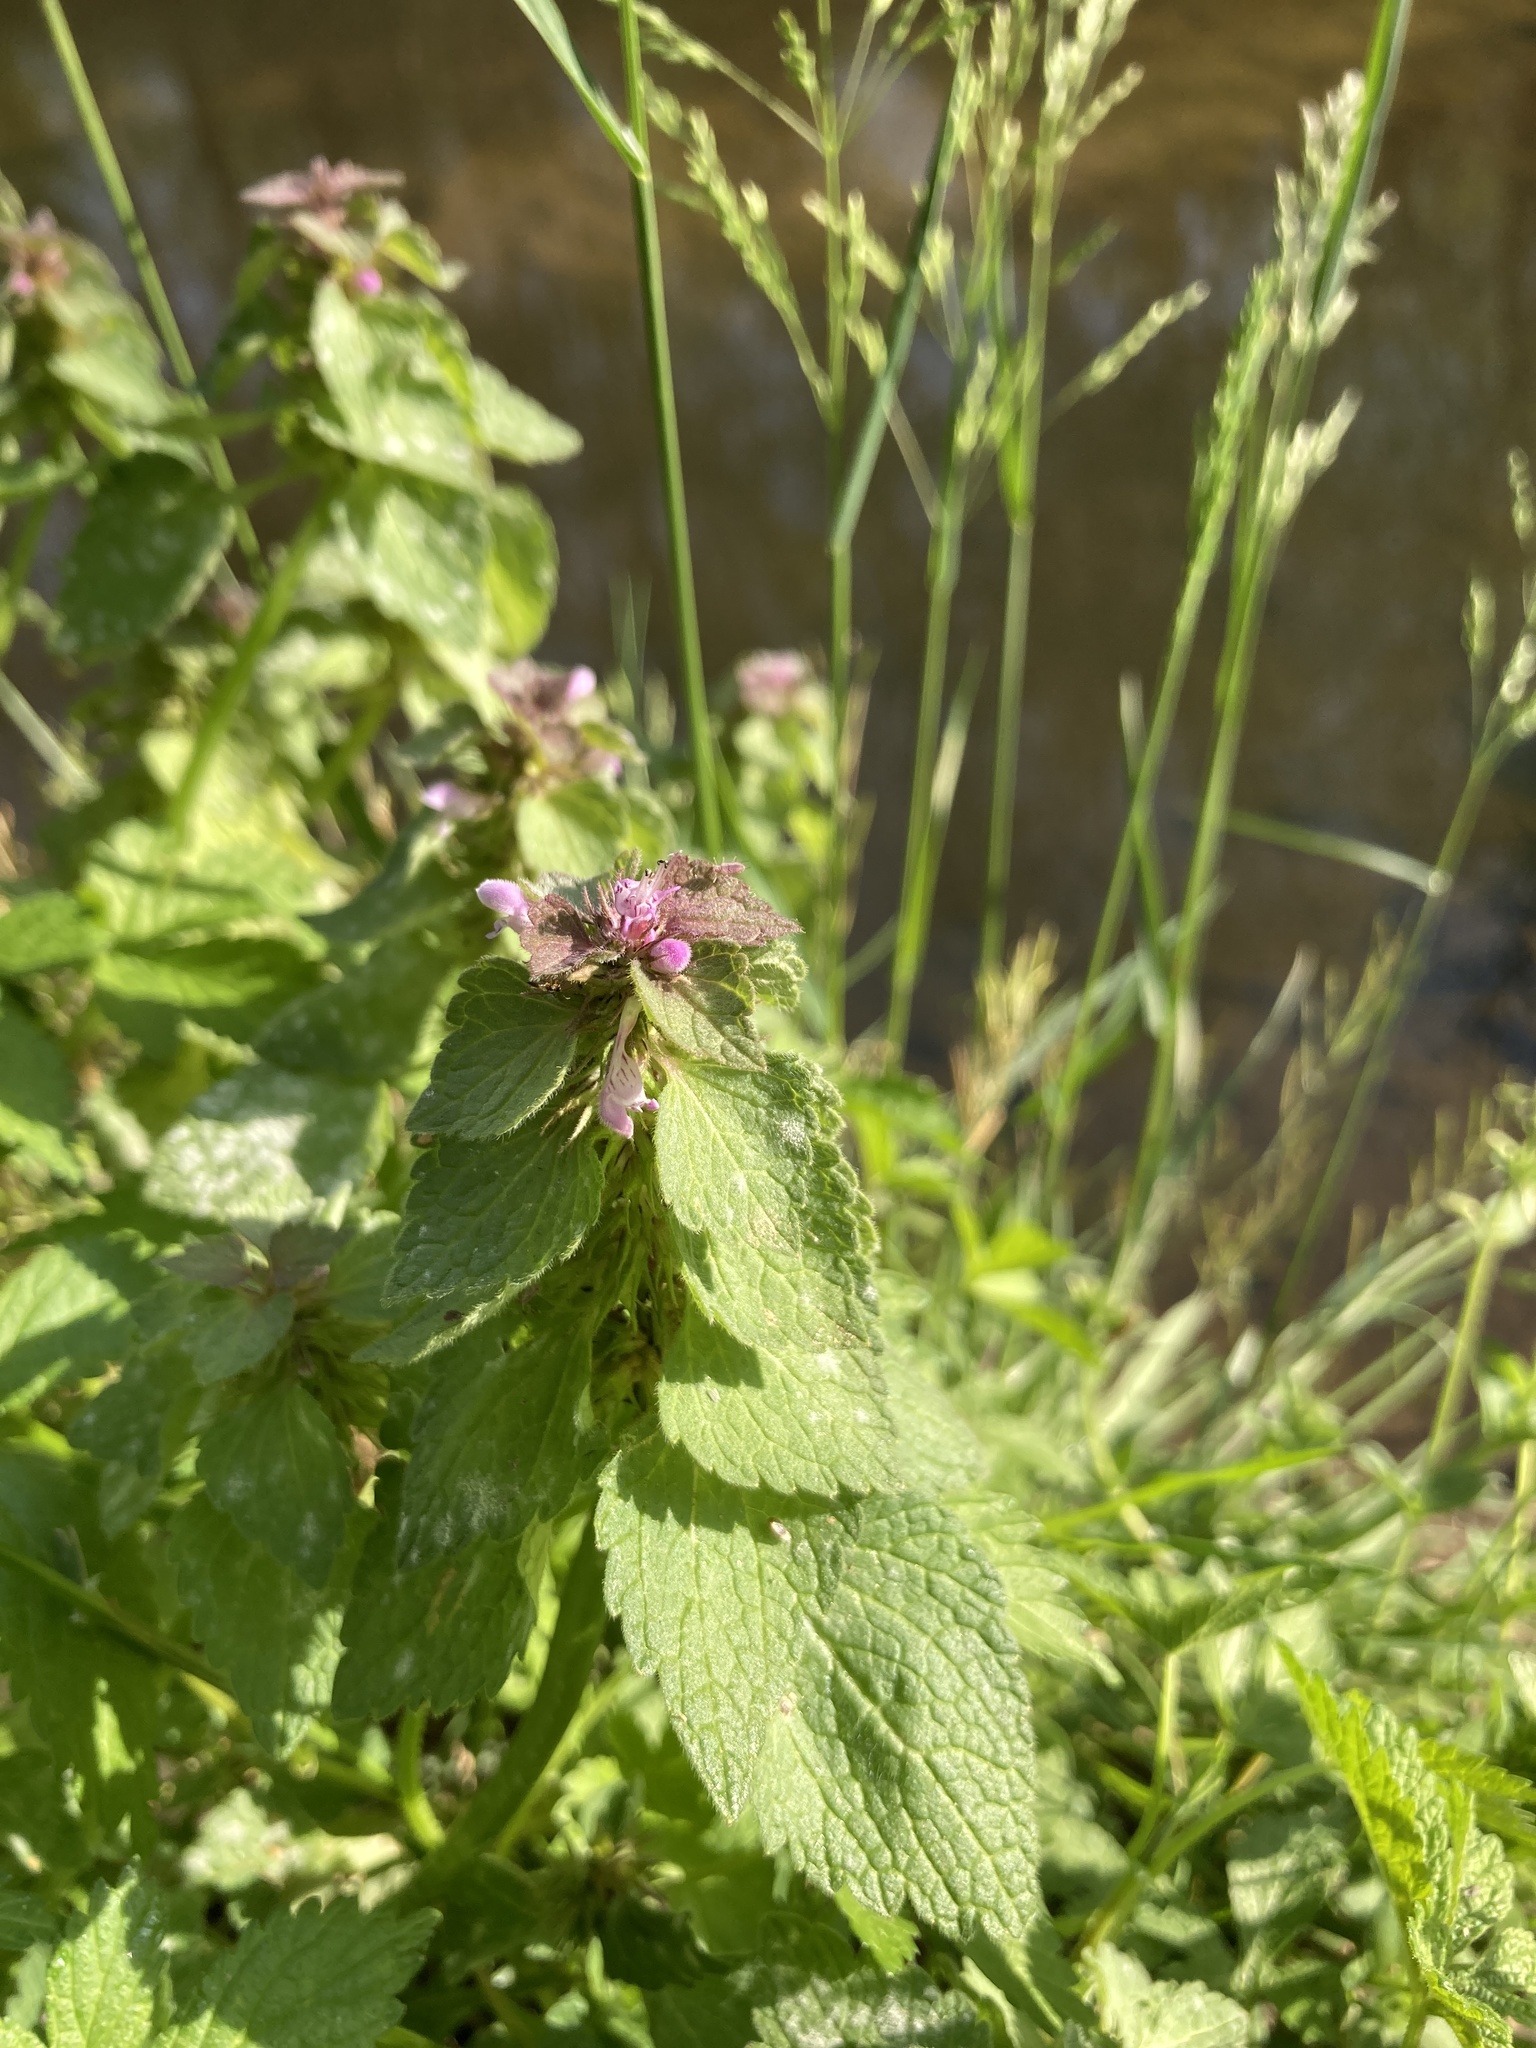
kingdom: Plantae
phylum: Tracheophyta
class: Magnoliopsida
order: Lamiales
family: Lamiaceae
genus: Lamium
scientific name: Lamium purpureum
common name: Red dead-nettle
